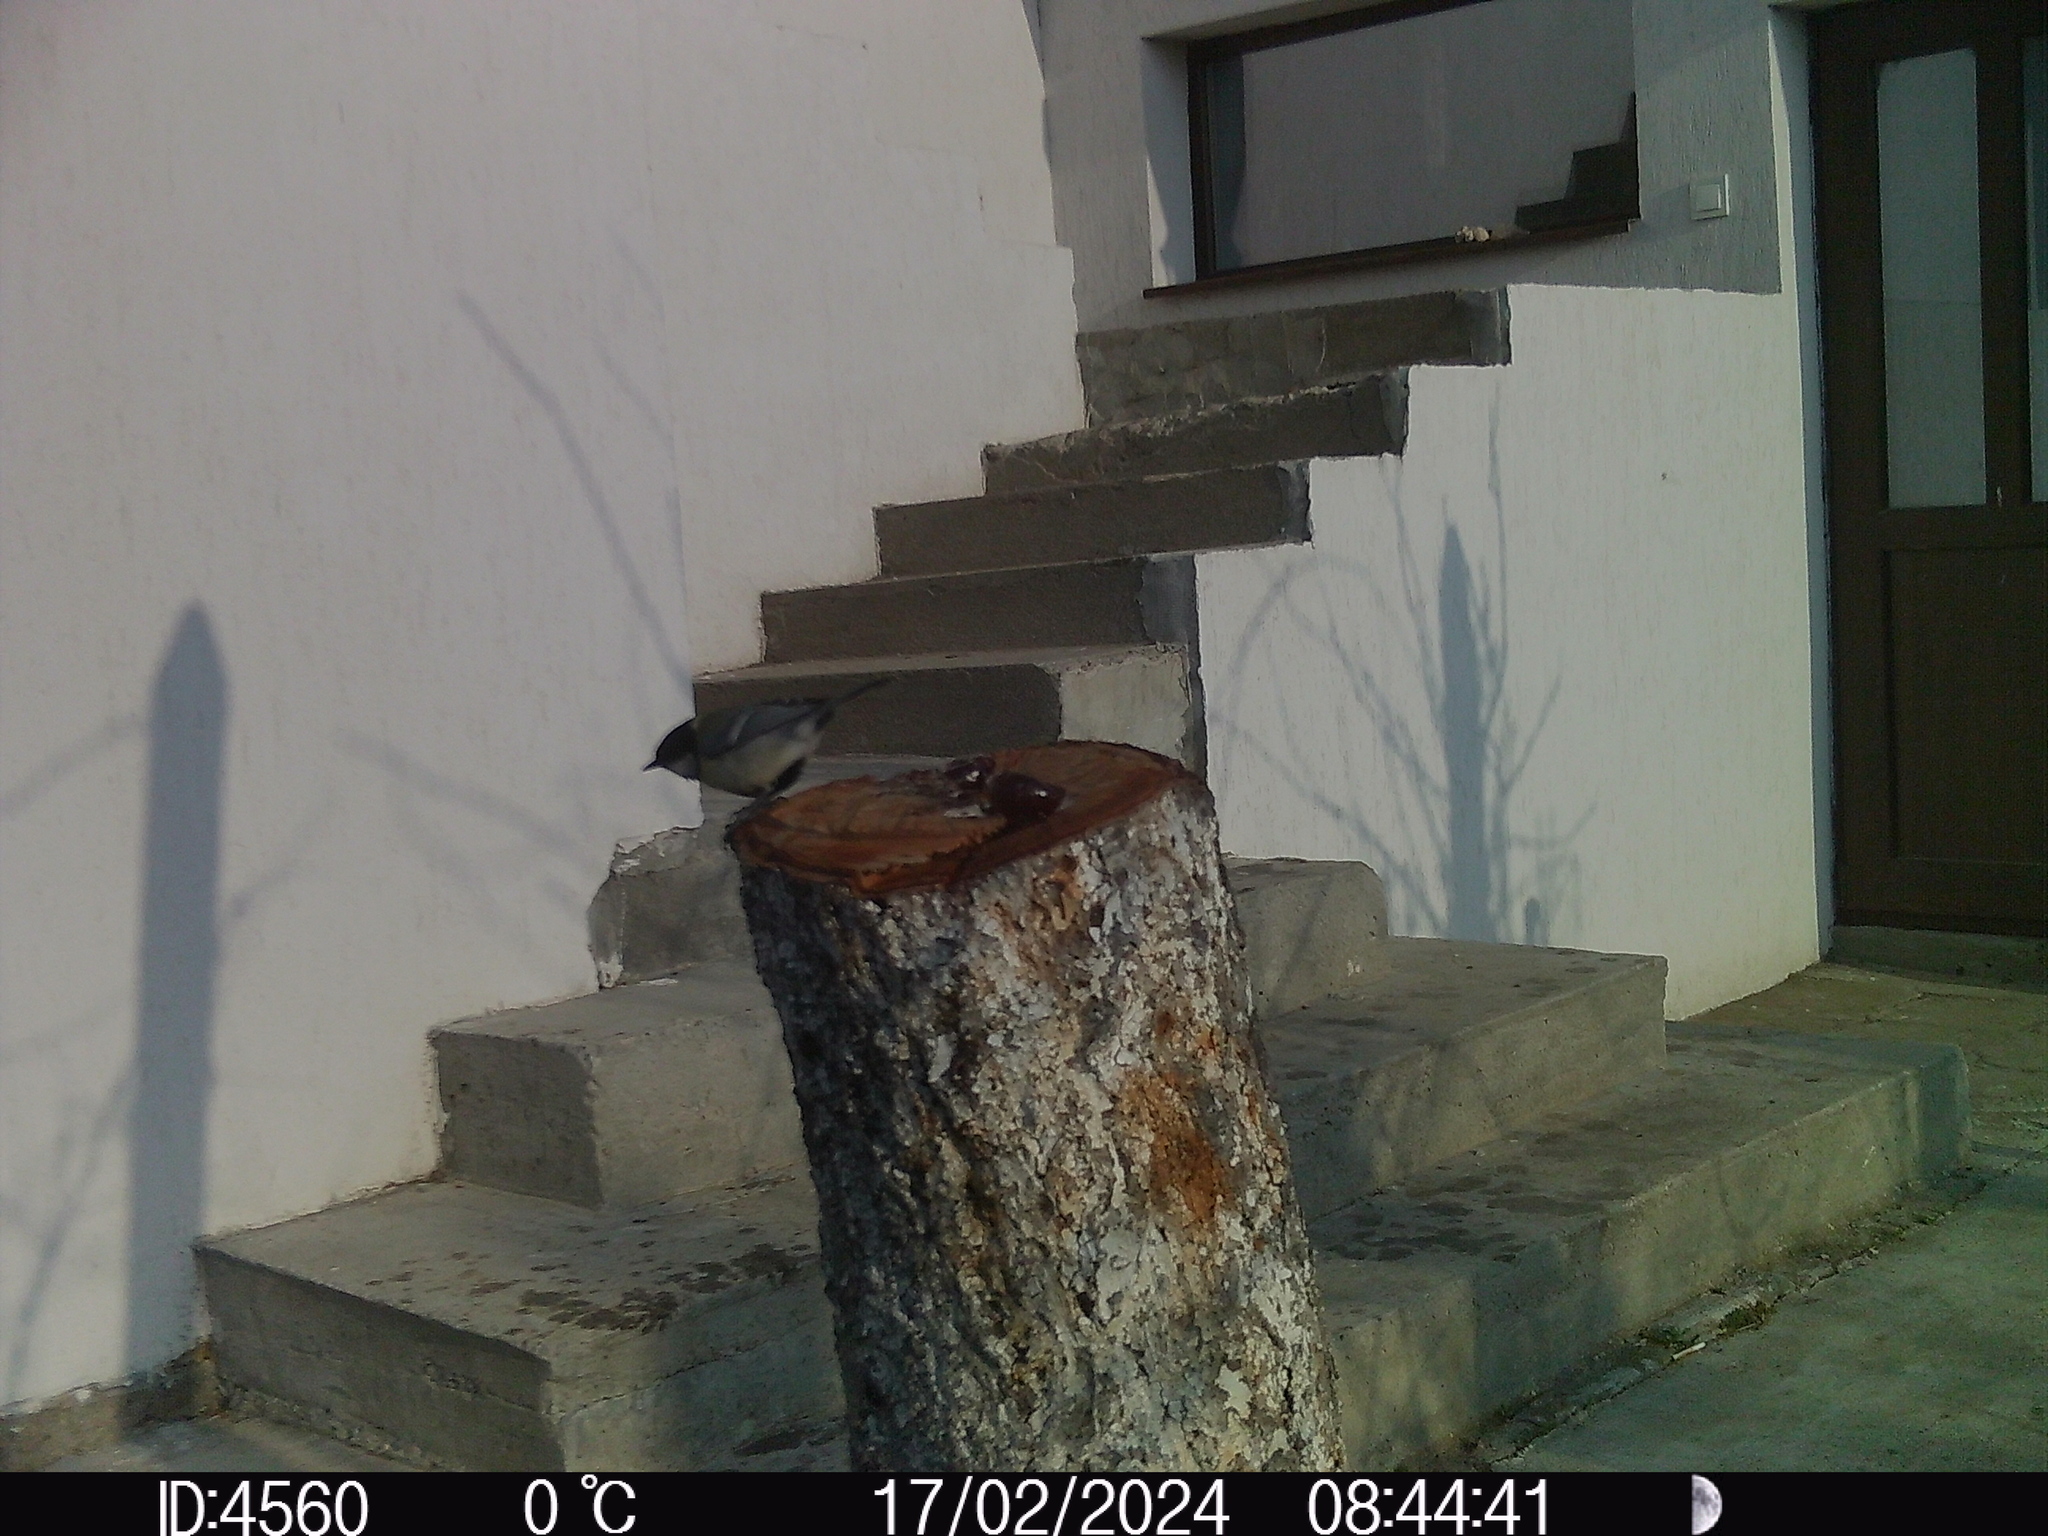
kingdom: Animalia
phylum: Chordata
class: Aves
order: Passeriformes
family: Paridae
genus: Parus
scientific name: Parus major
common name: Great tit
